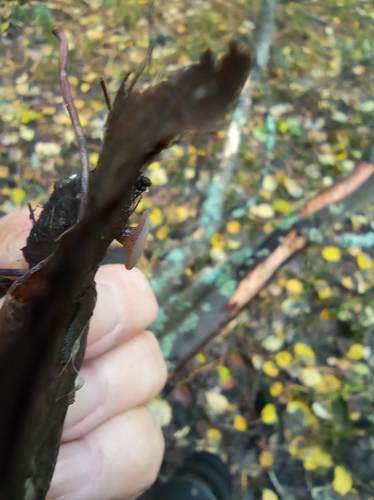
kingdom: Fungi
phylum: Ascomycota
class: Leotiomycetes
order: Helotiales
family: Gelatinodiscaceae
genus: Ombrophila
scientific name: Ombrophila
